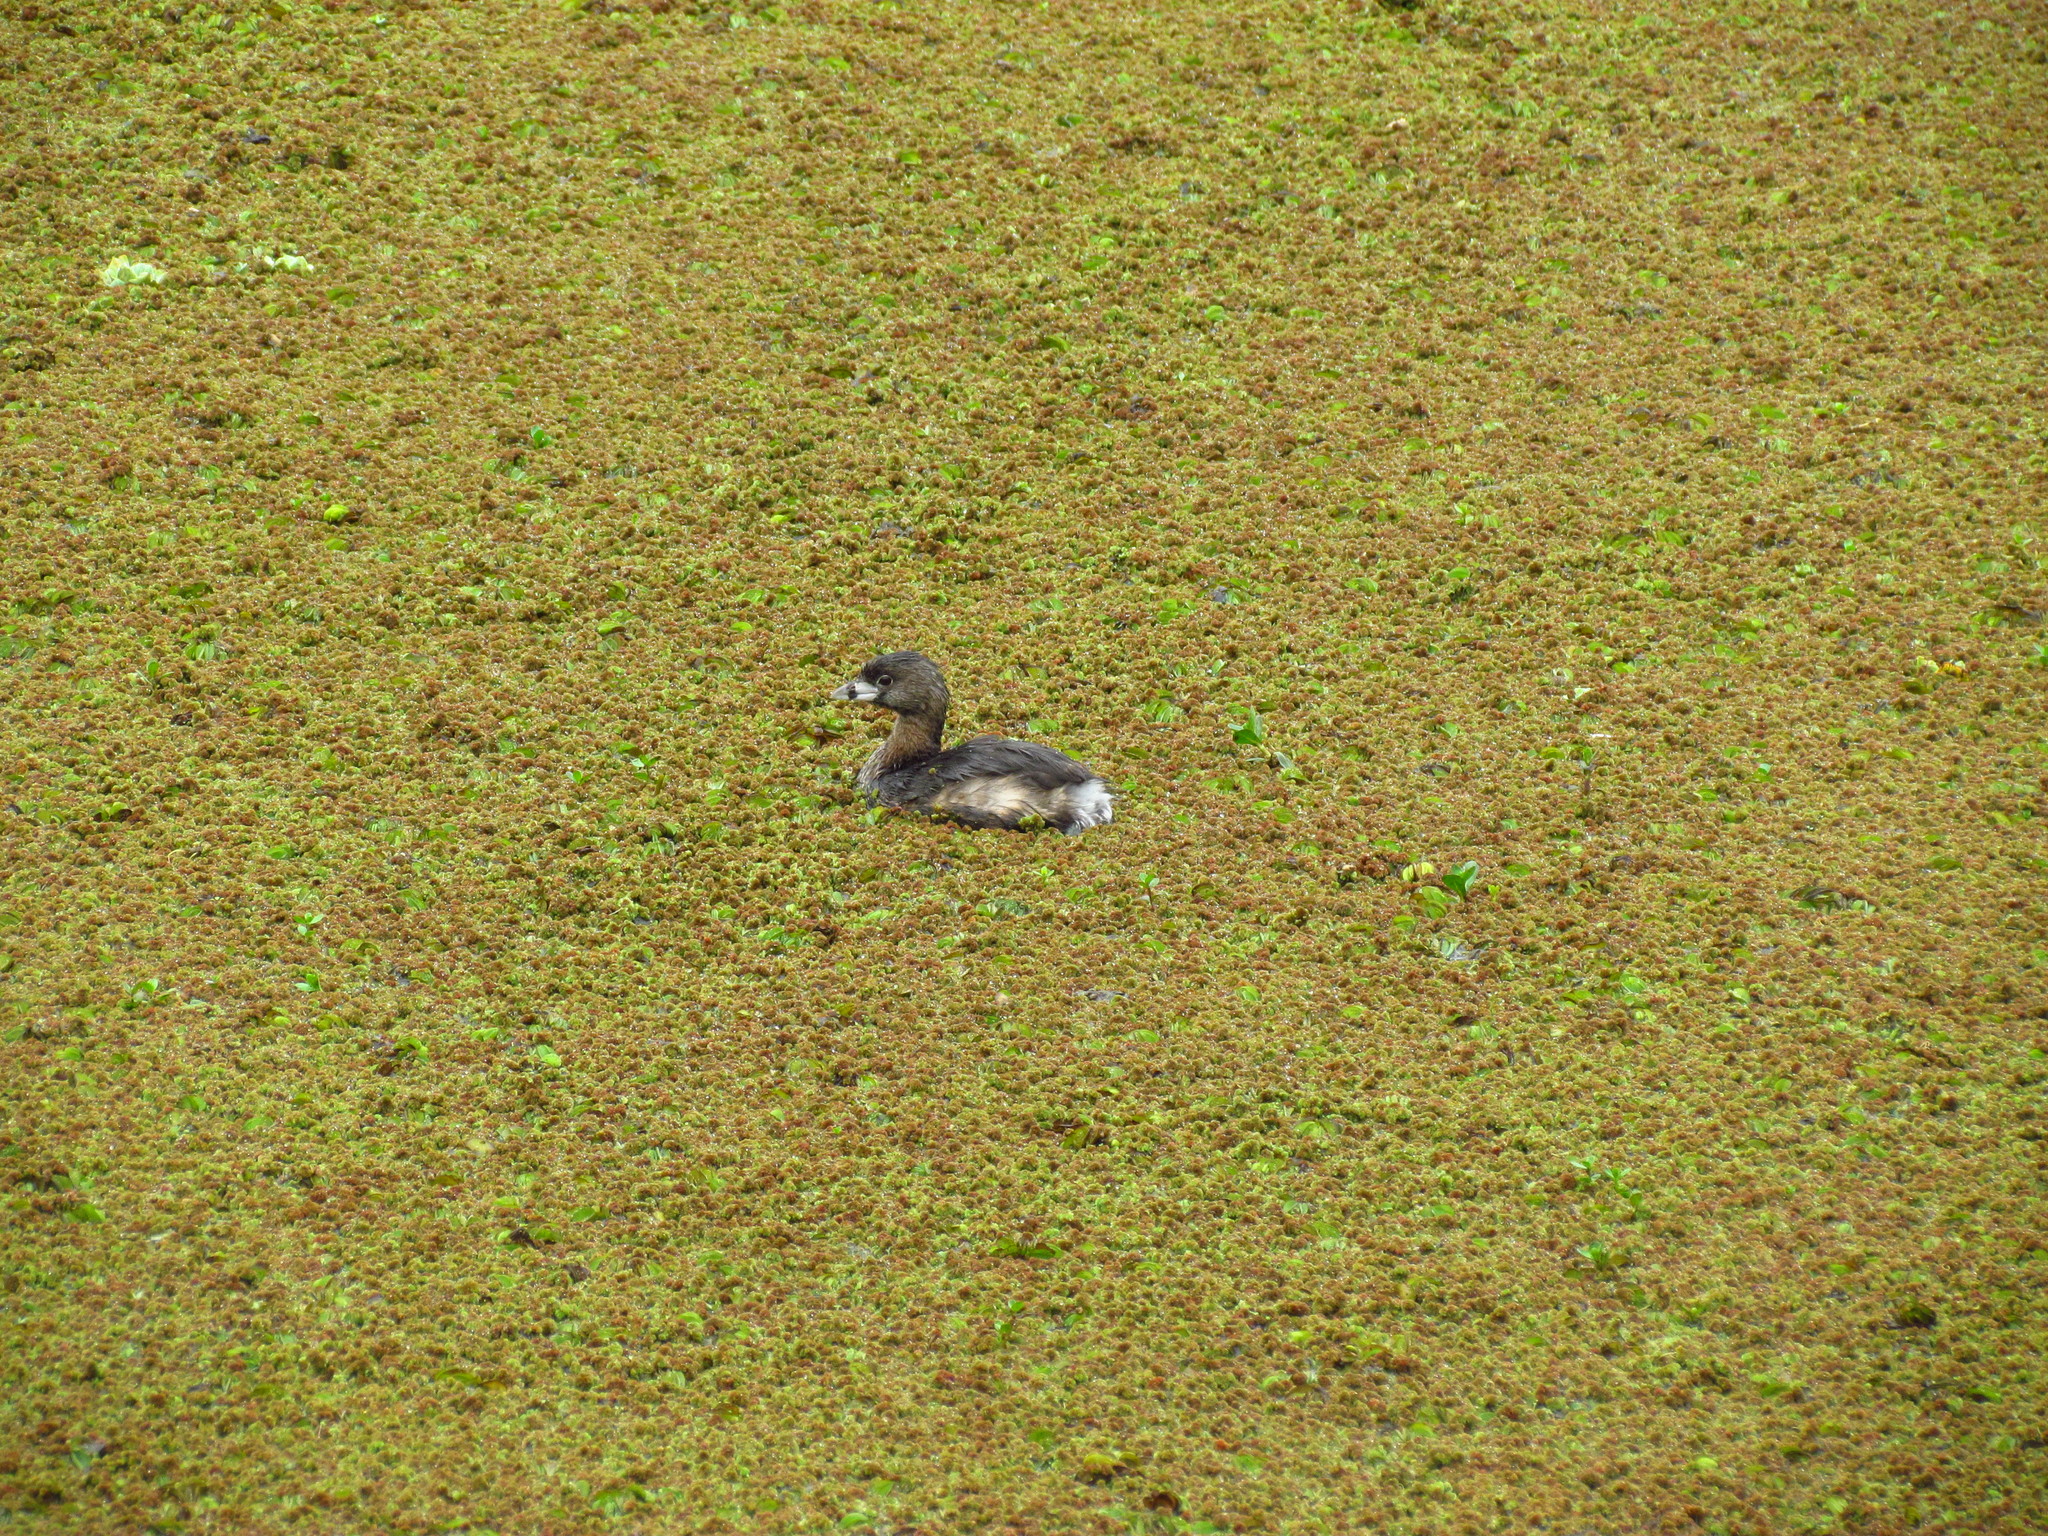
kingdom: Animalia
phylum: Chordata
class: Aves
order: Podicipediformes
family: Podicipedidae
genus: Podilymbus
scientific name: Podilymbus podiceps
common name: Pied-billed grebe
